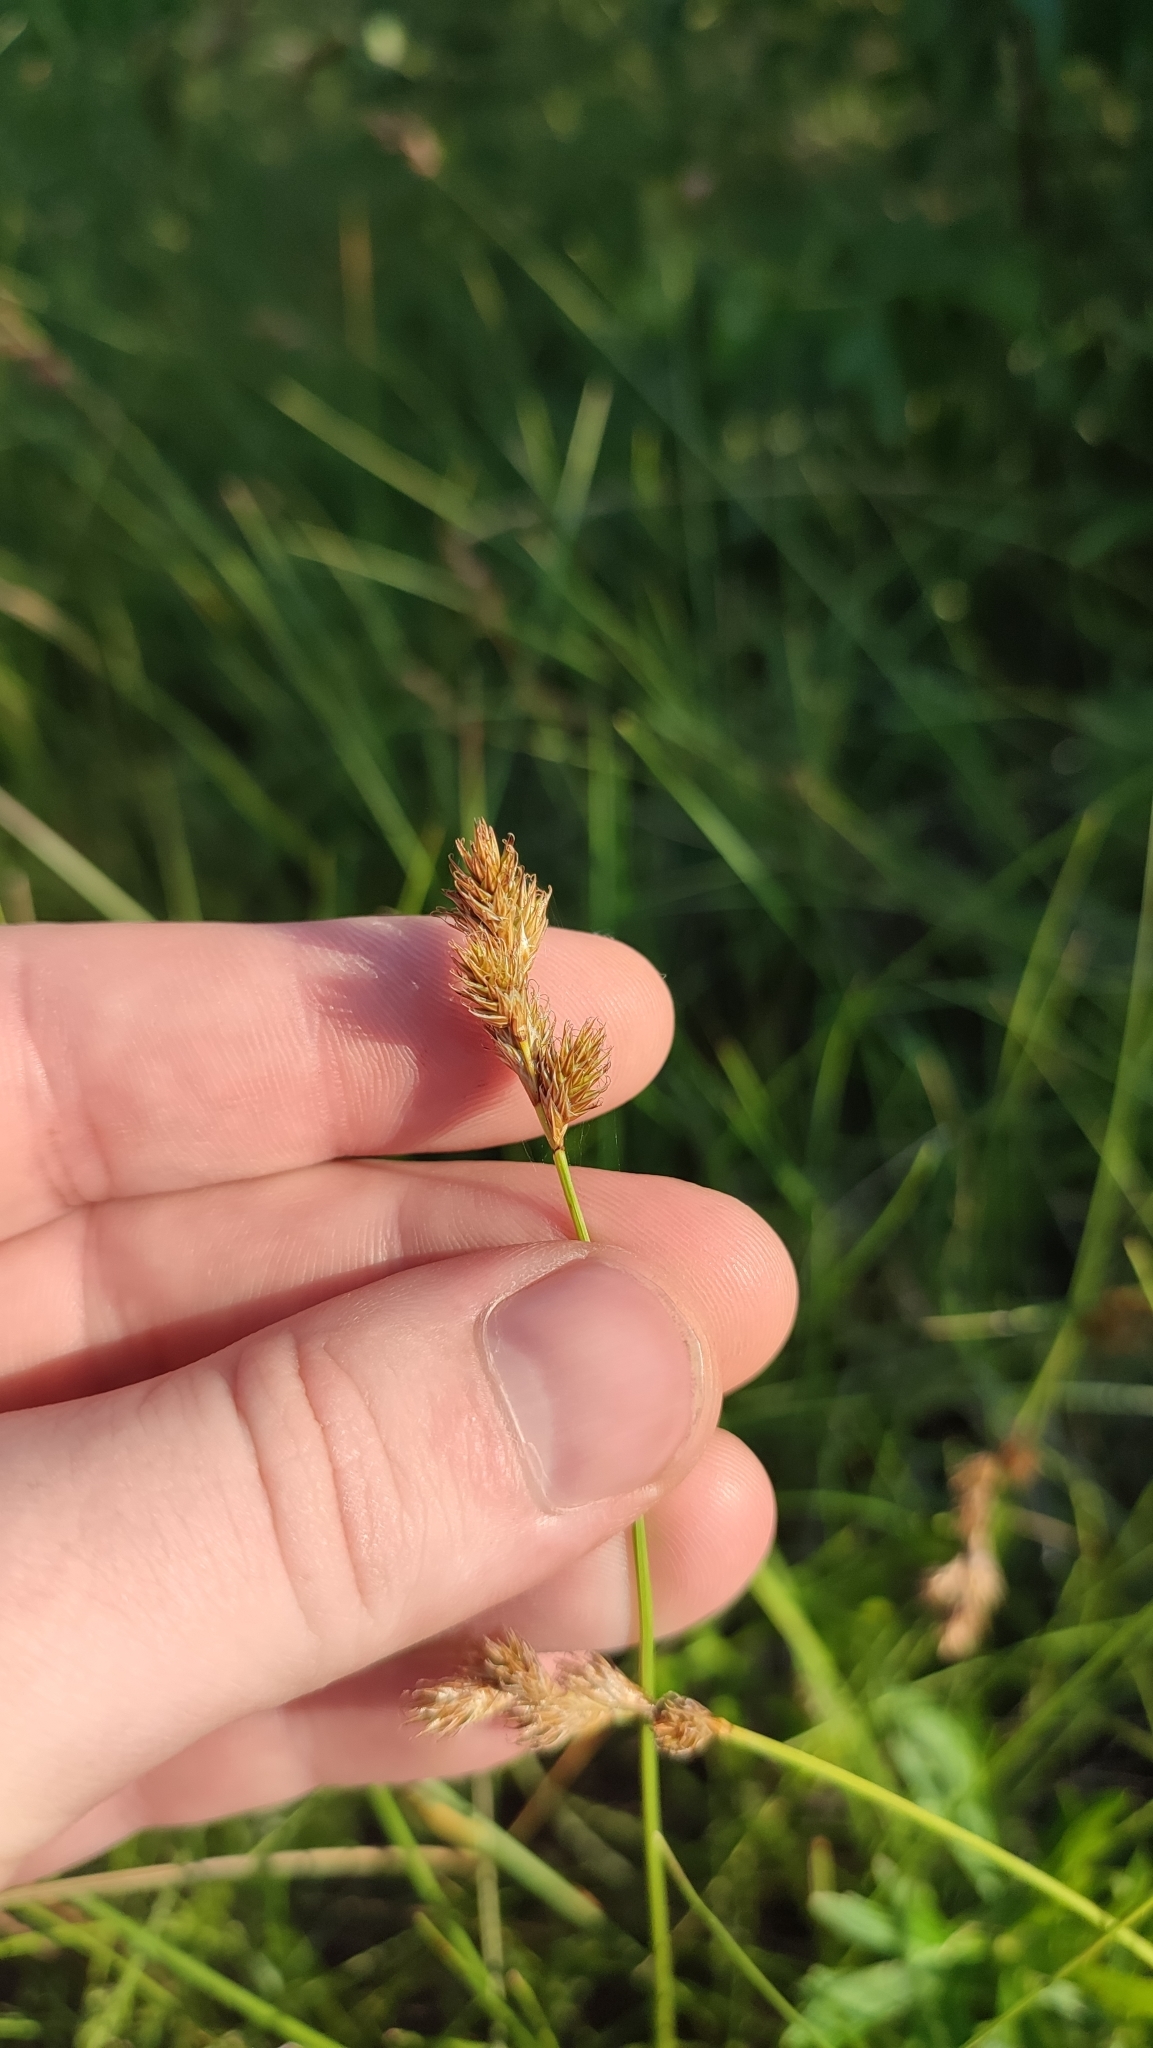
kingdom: Plantae
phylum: Tracheophyta
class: Liliopsida
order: Poales
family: Cyperaceae
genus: Carex
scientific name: Carex leporina
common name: Oval sedge
